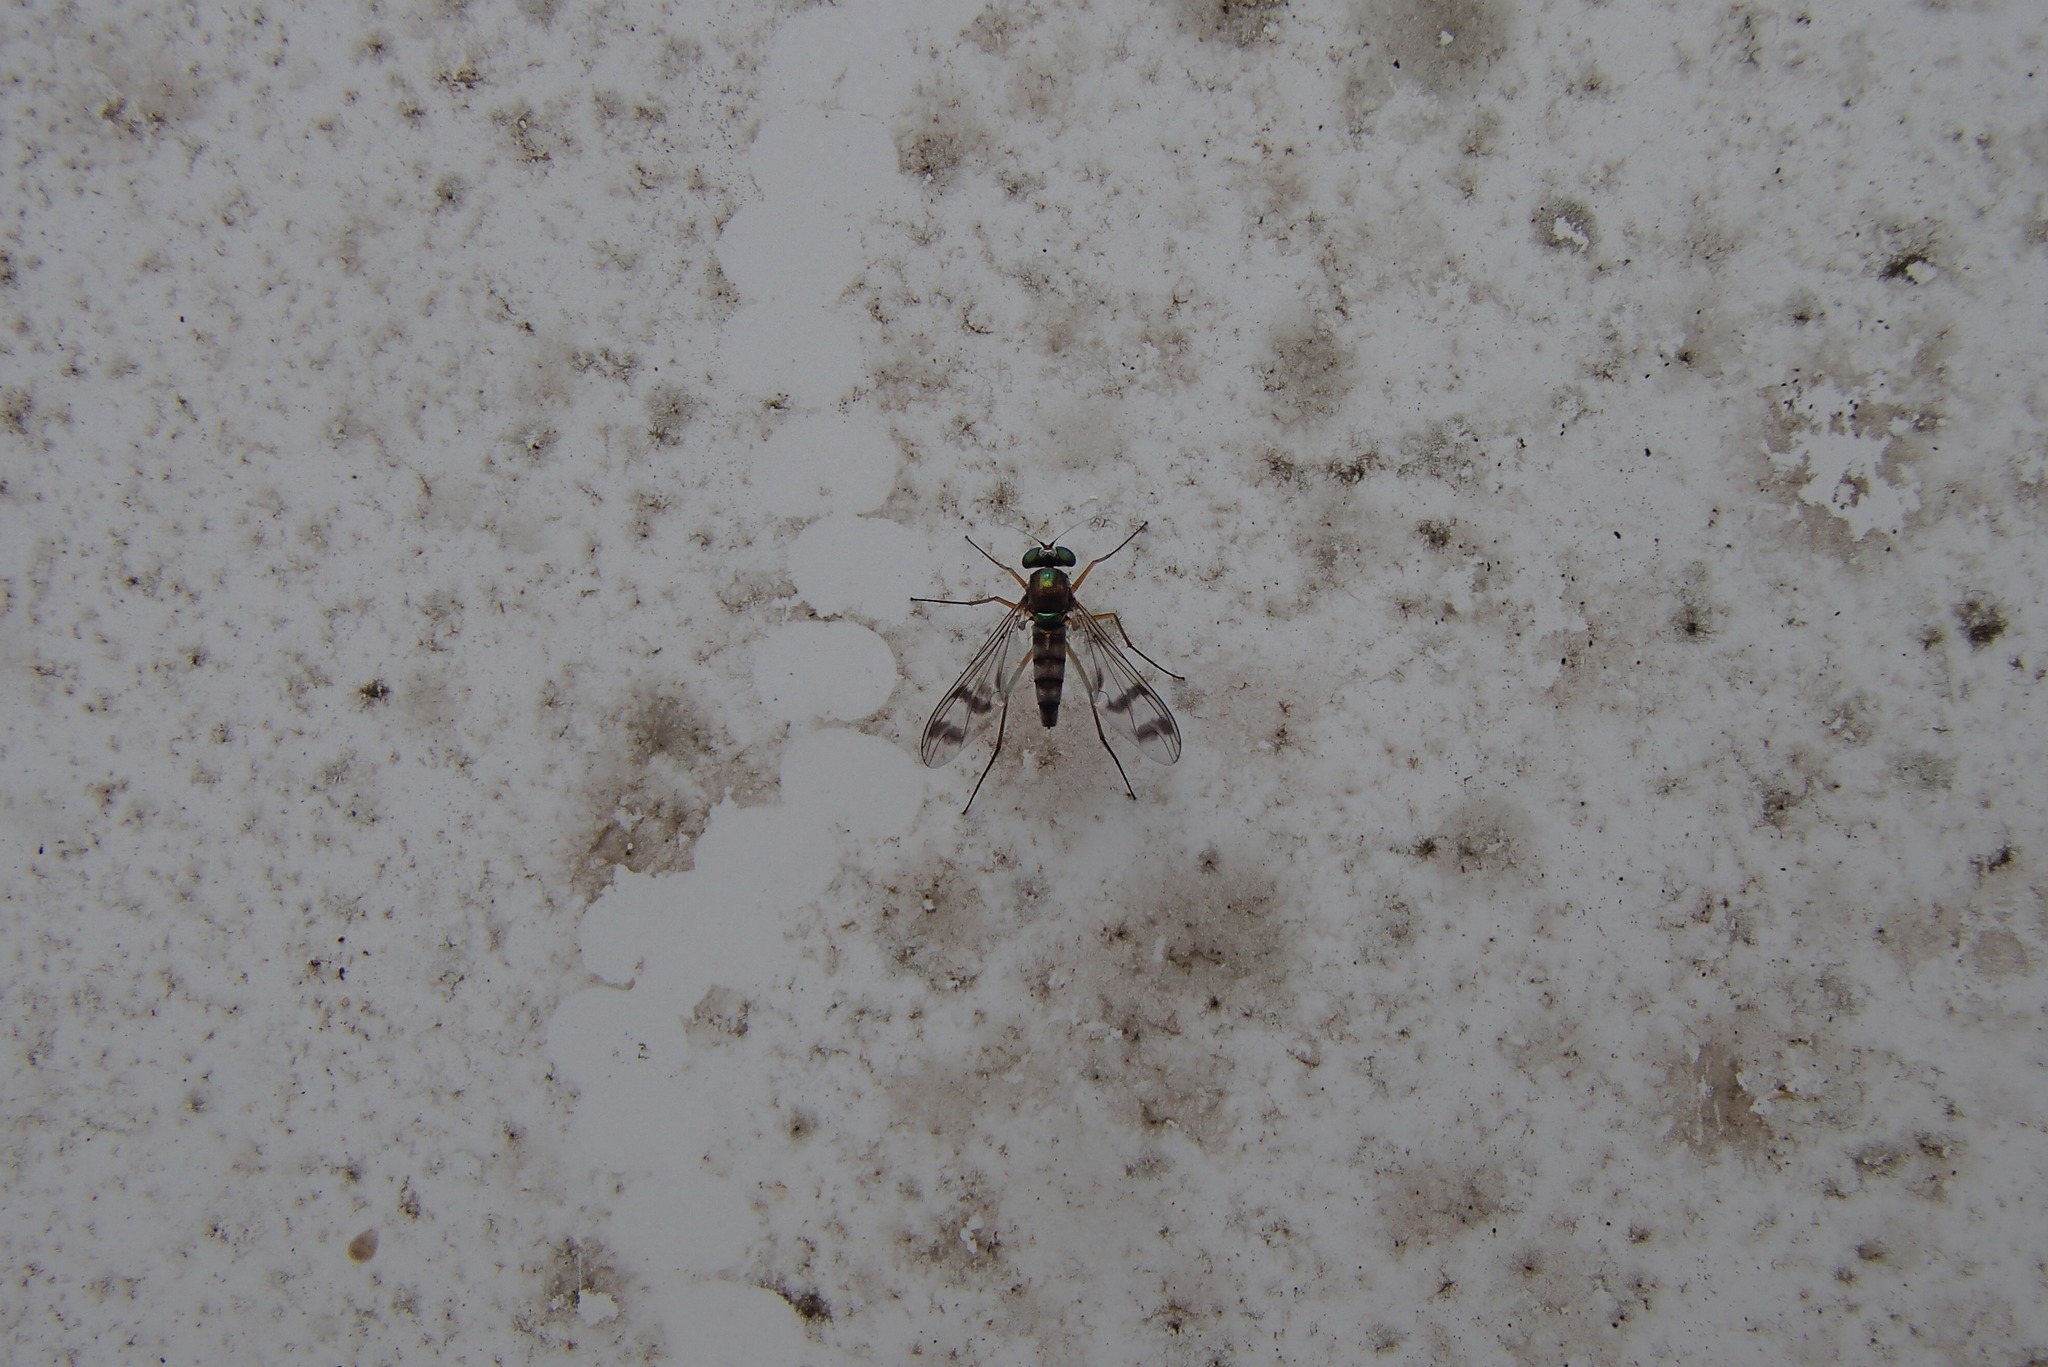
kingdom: Animalia
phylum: Arthropoda
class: Insecta
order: Diptera
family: Dolichopodidae
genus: Heteropsilopus
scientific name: Heteropsilopus squamifer
